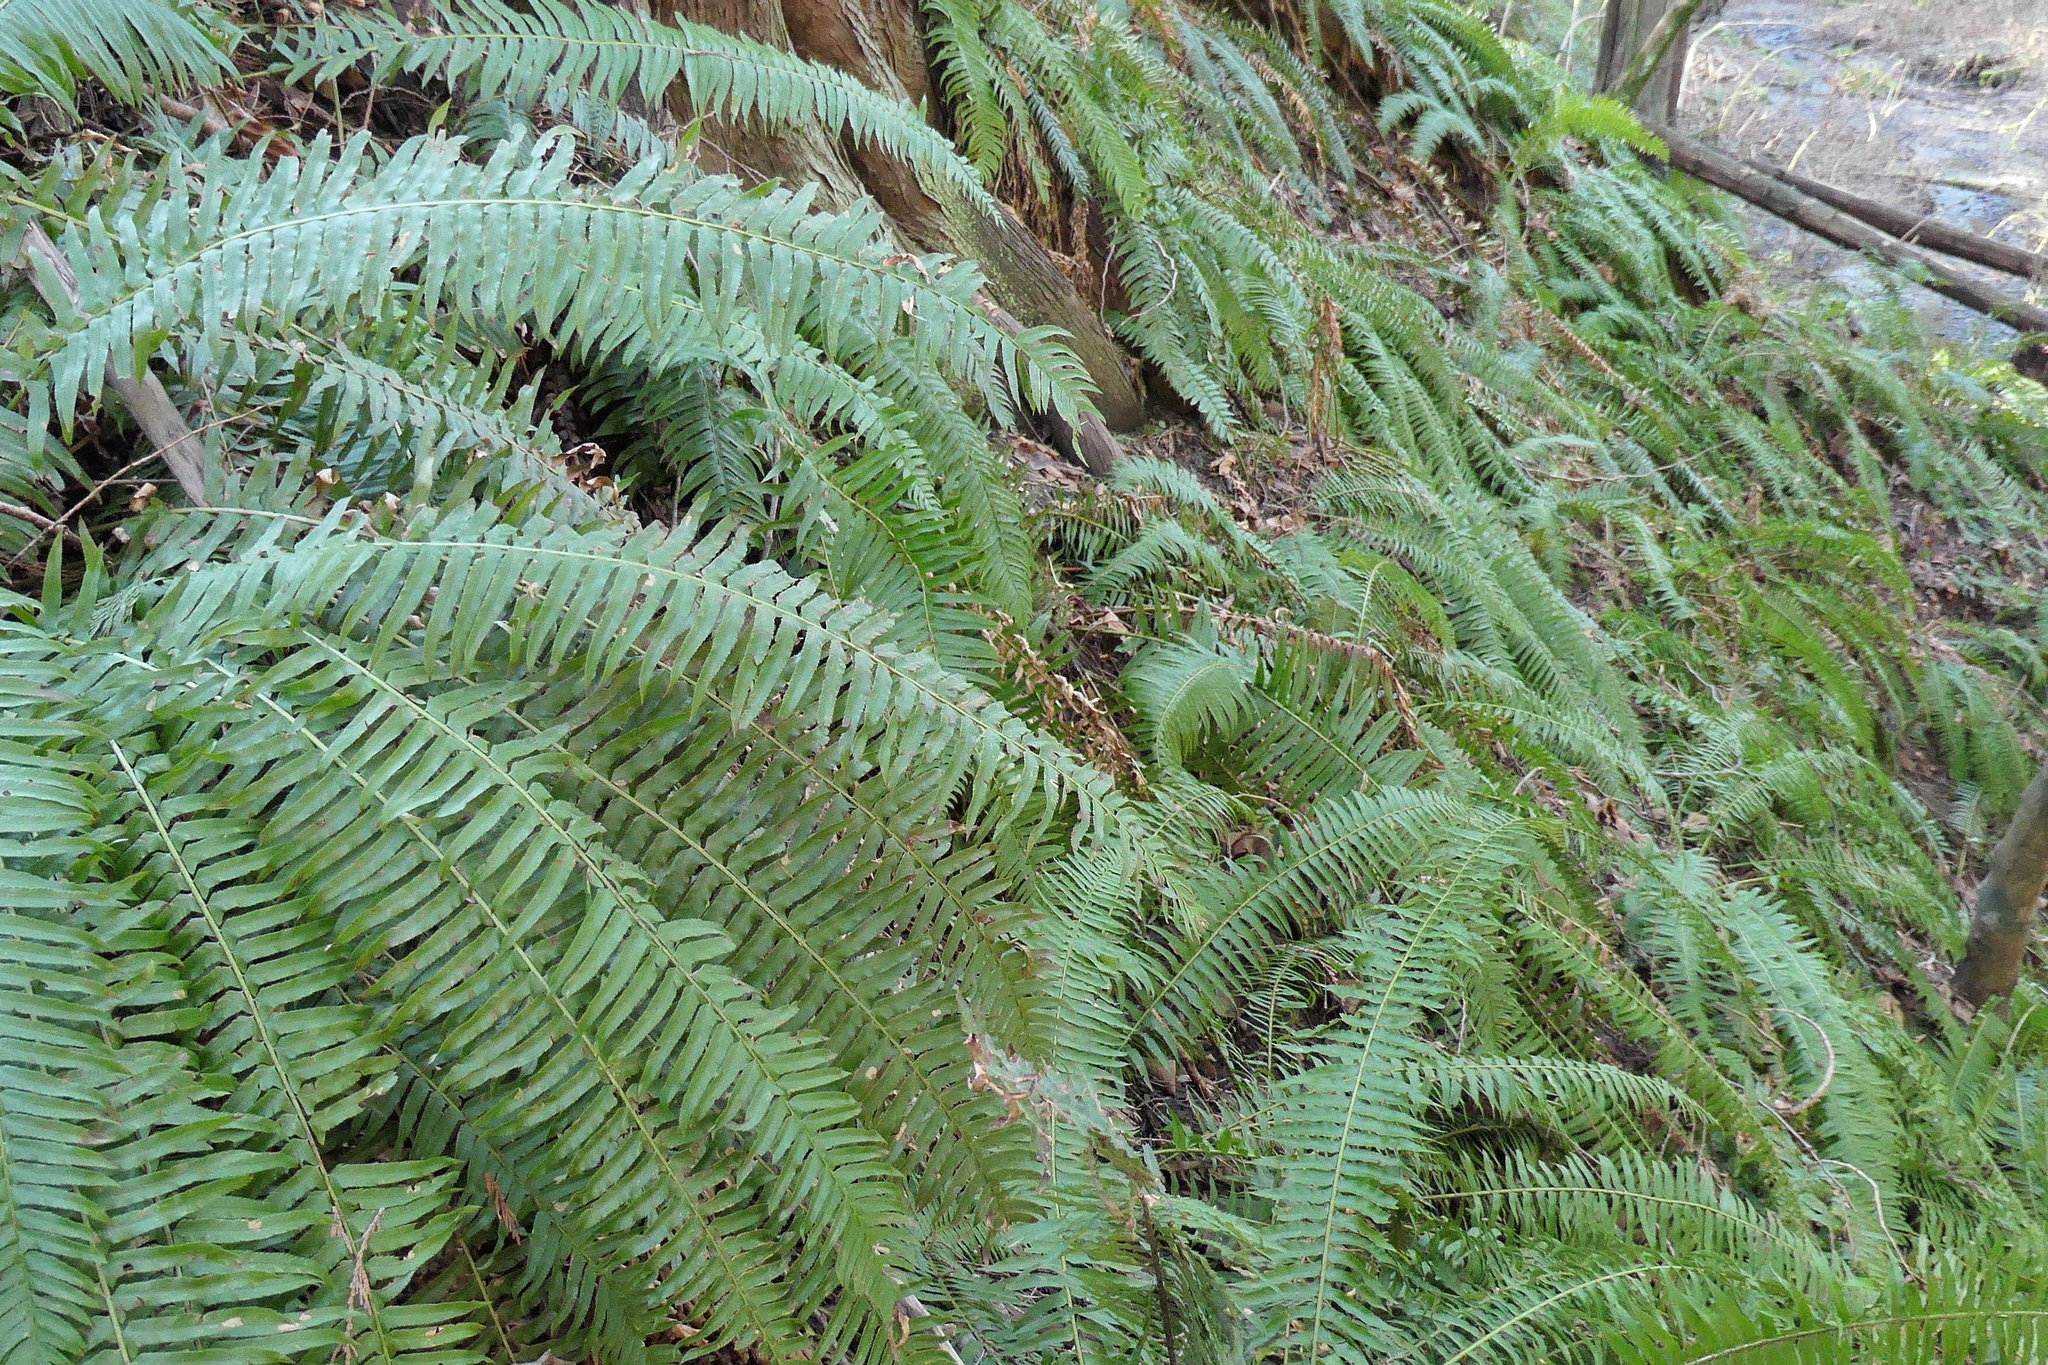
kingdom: Plantae
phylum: Tracheophyta
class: Polypodiopsida
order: Polypodiales
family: Dryopteridaceae
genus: Polystichum
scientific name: Polystichum munitum
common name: Western sword-fern
